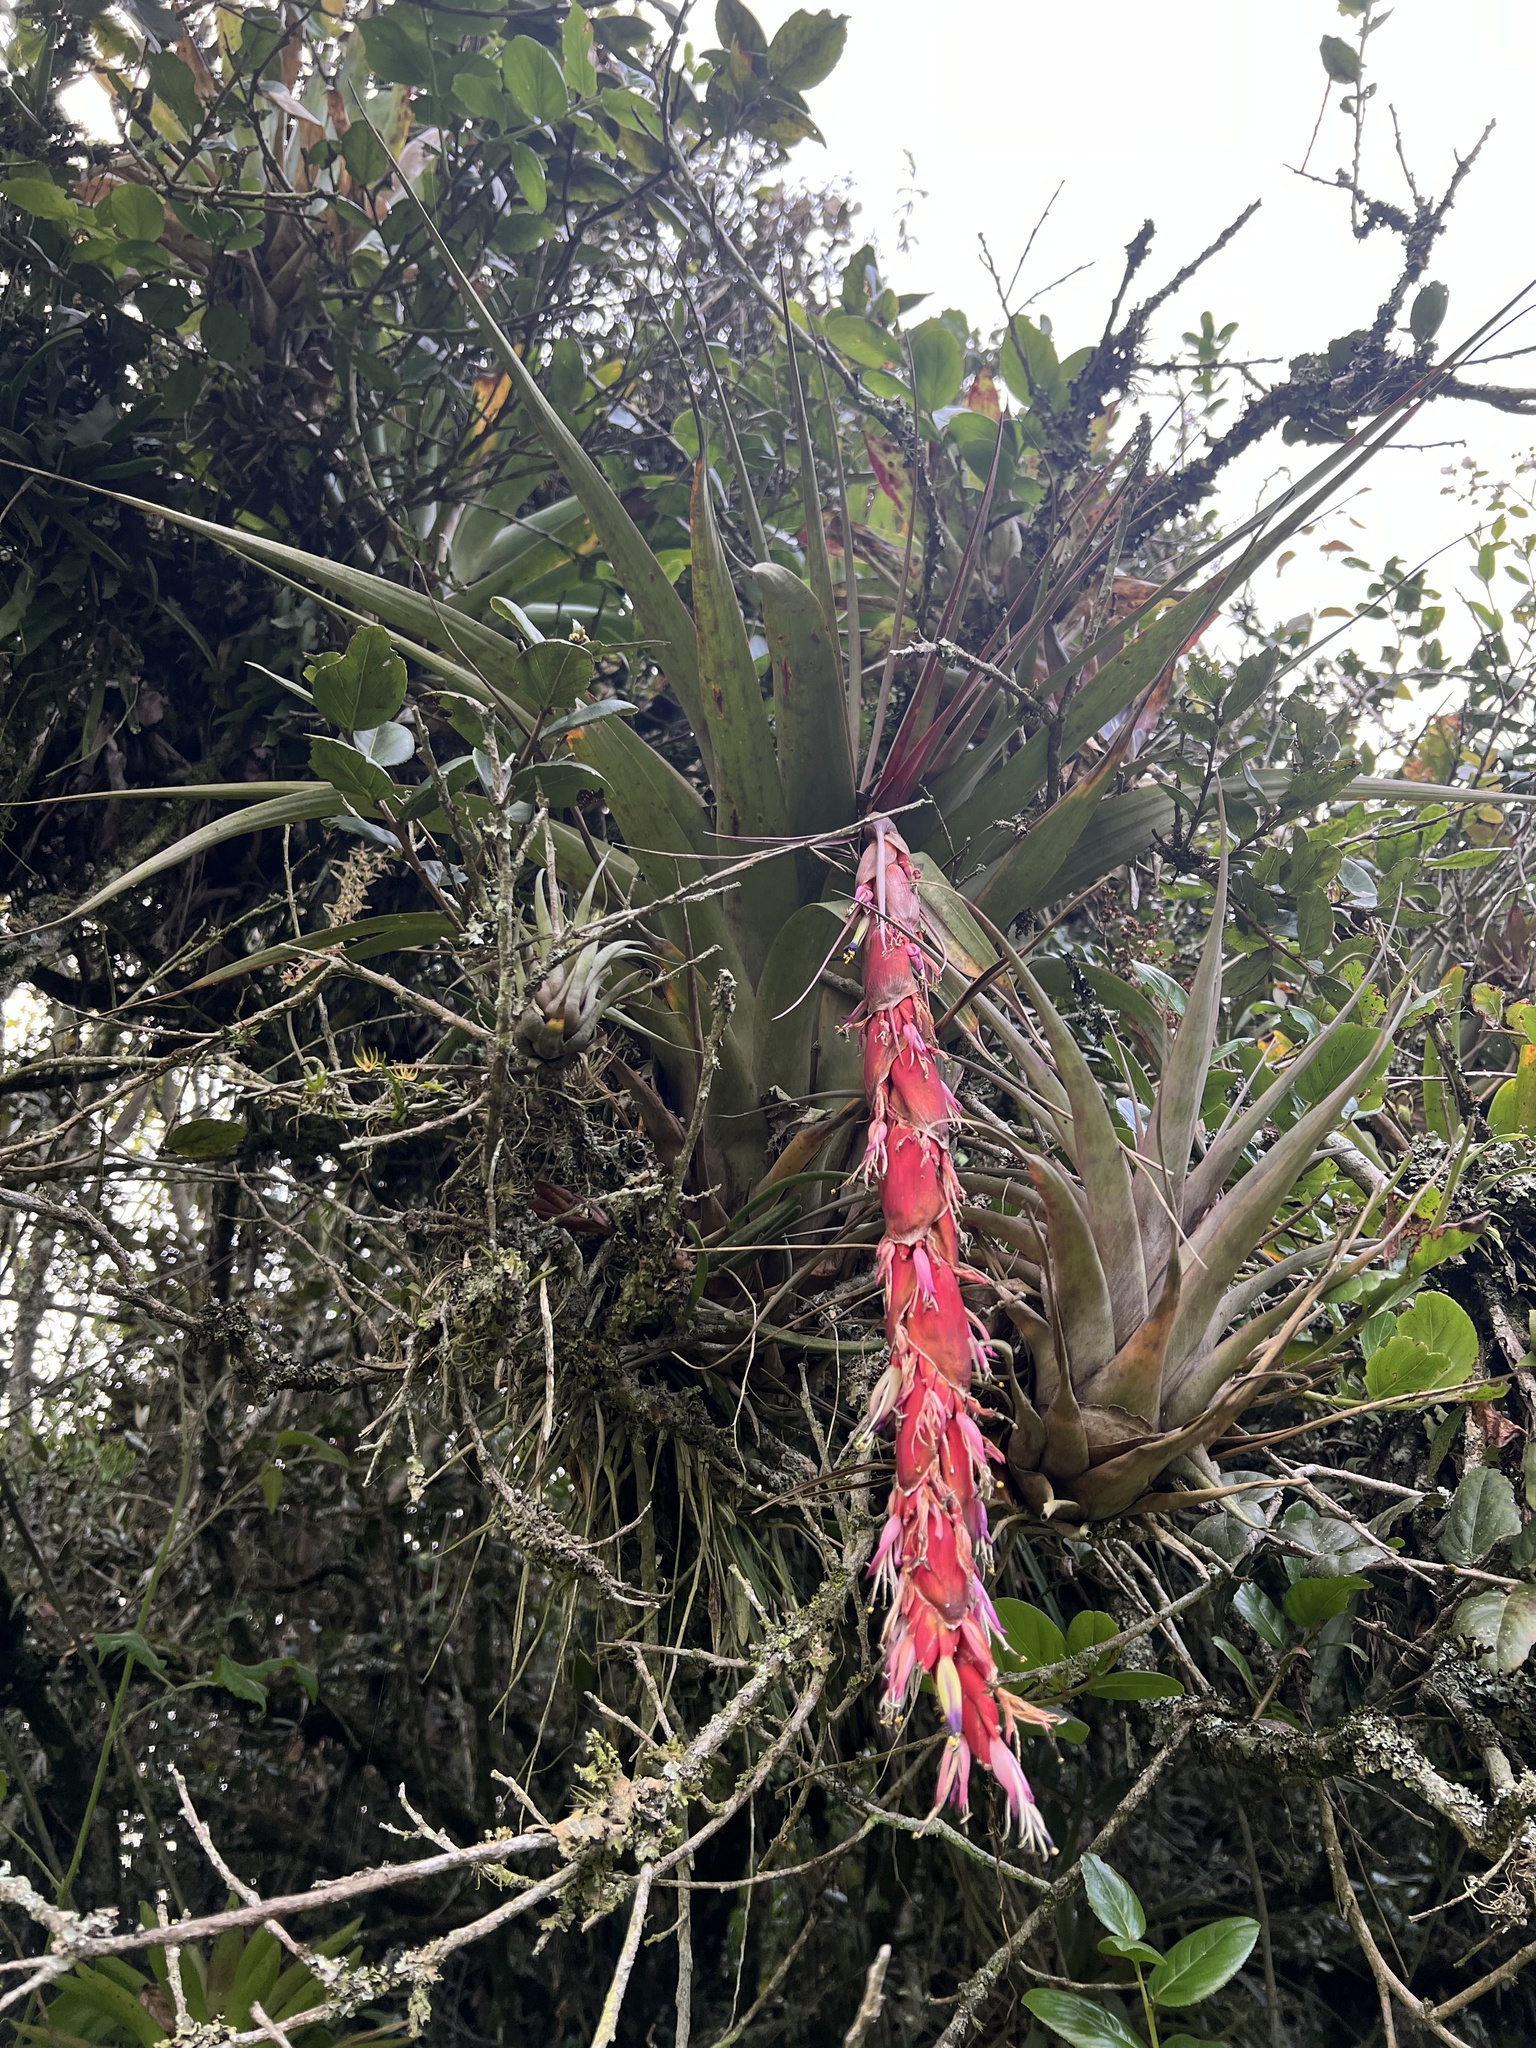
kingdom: Plantae
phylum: Tracheophyta
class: Liliopsida
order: Poales
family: Bromeliaceae
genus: Vriesea
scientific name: Vriesea tequendamae
